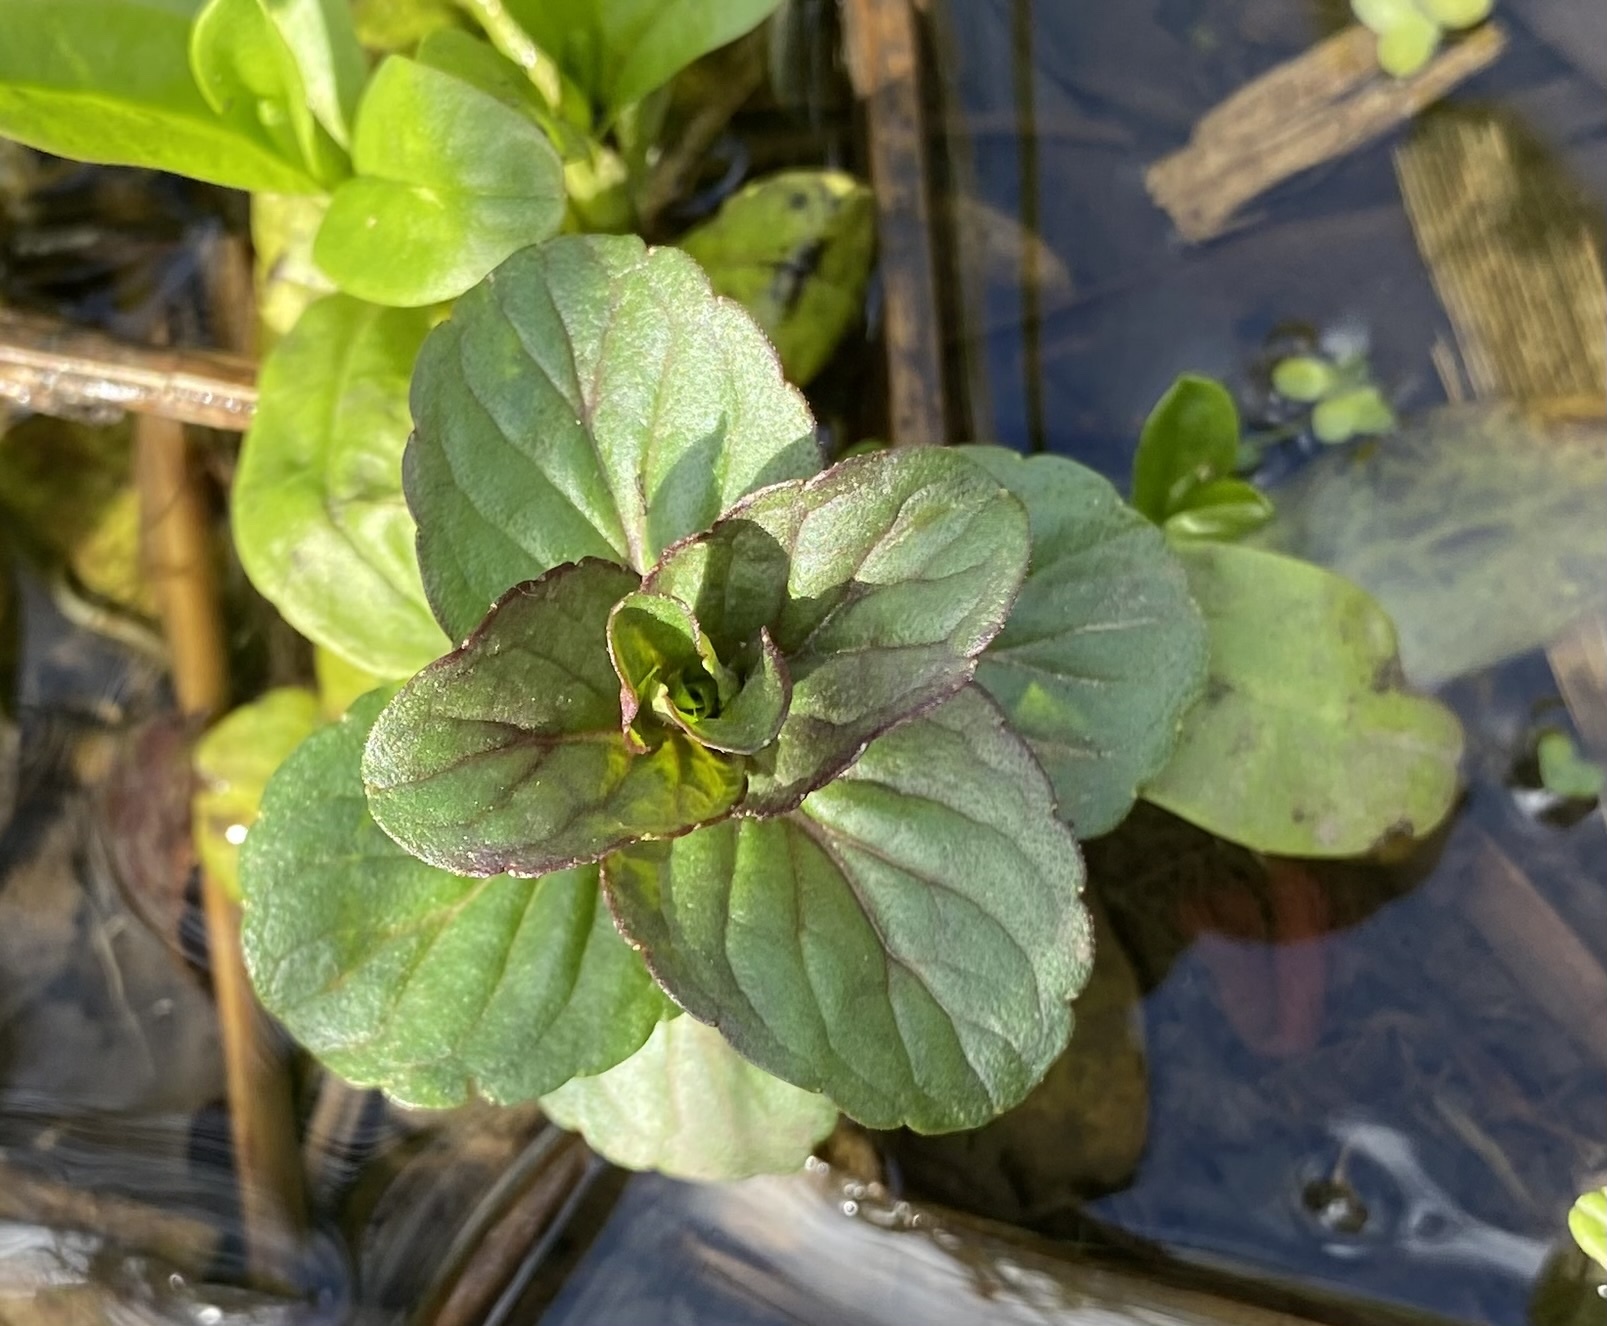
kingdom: Plantae
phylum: Tracheophyta
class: Magnoliopsida
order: Lamiales
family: Lamiaceae
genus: Mentha
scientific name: Mentha aquatica
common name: Water mint
